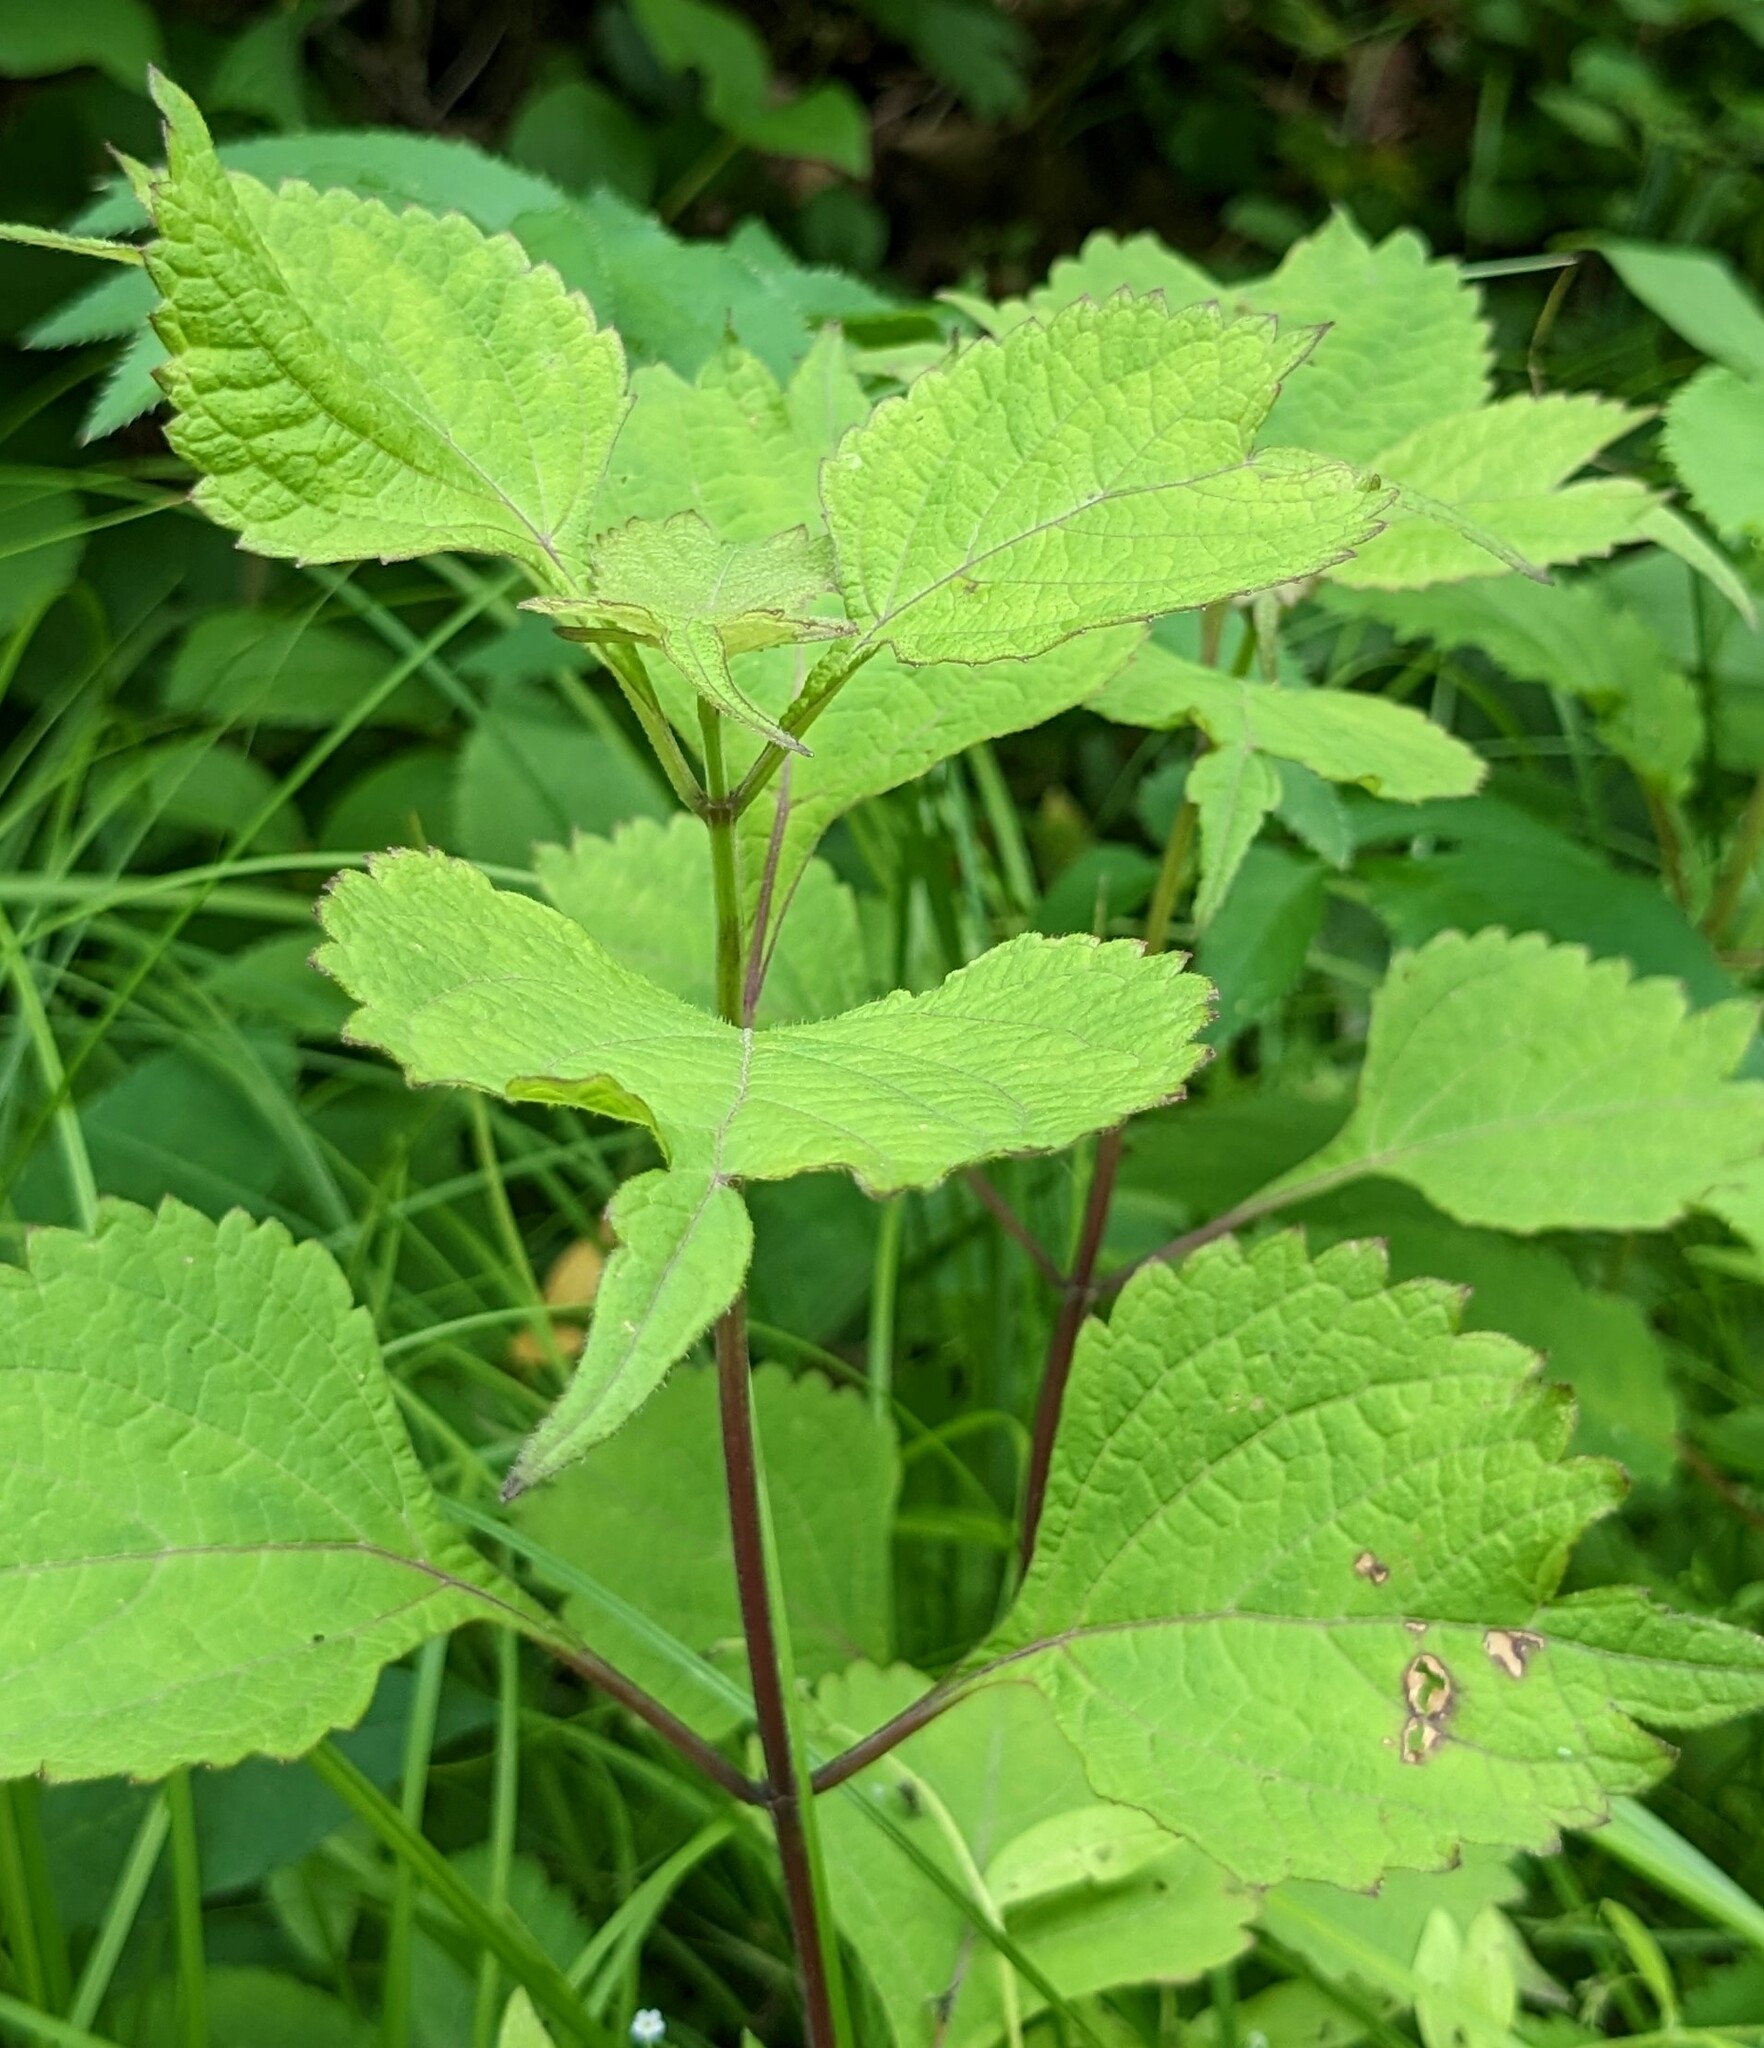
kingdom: Plantae
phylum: Tracheophyta
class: Magnoliopsida
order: Lamiales
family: Lamiaceae
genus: Isodon
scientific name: Isodon excisus
